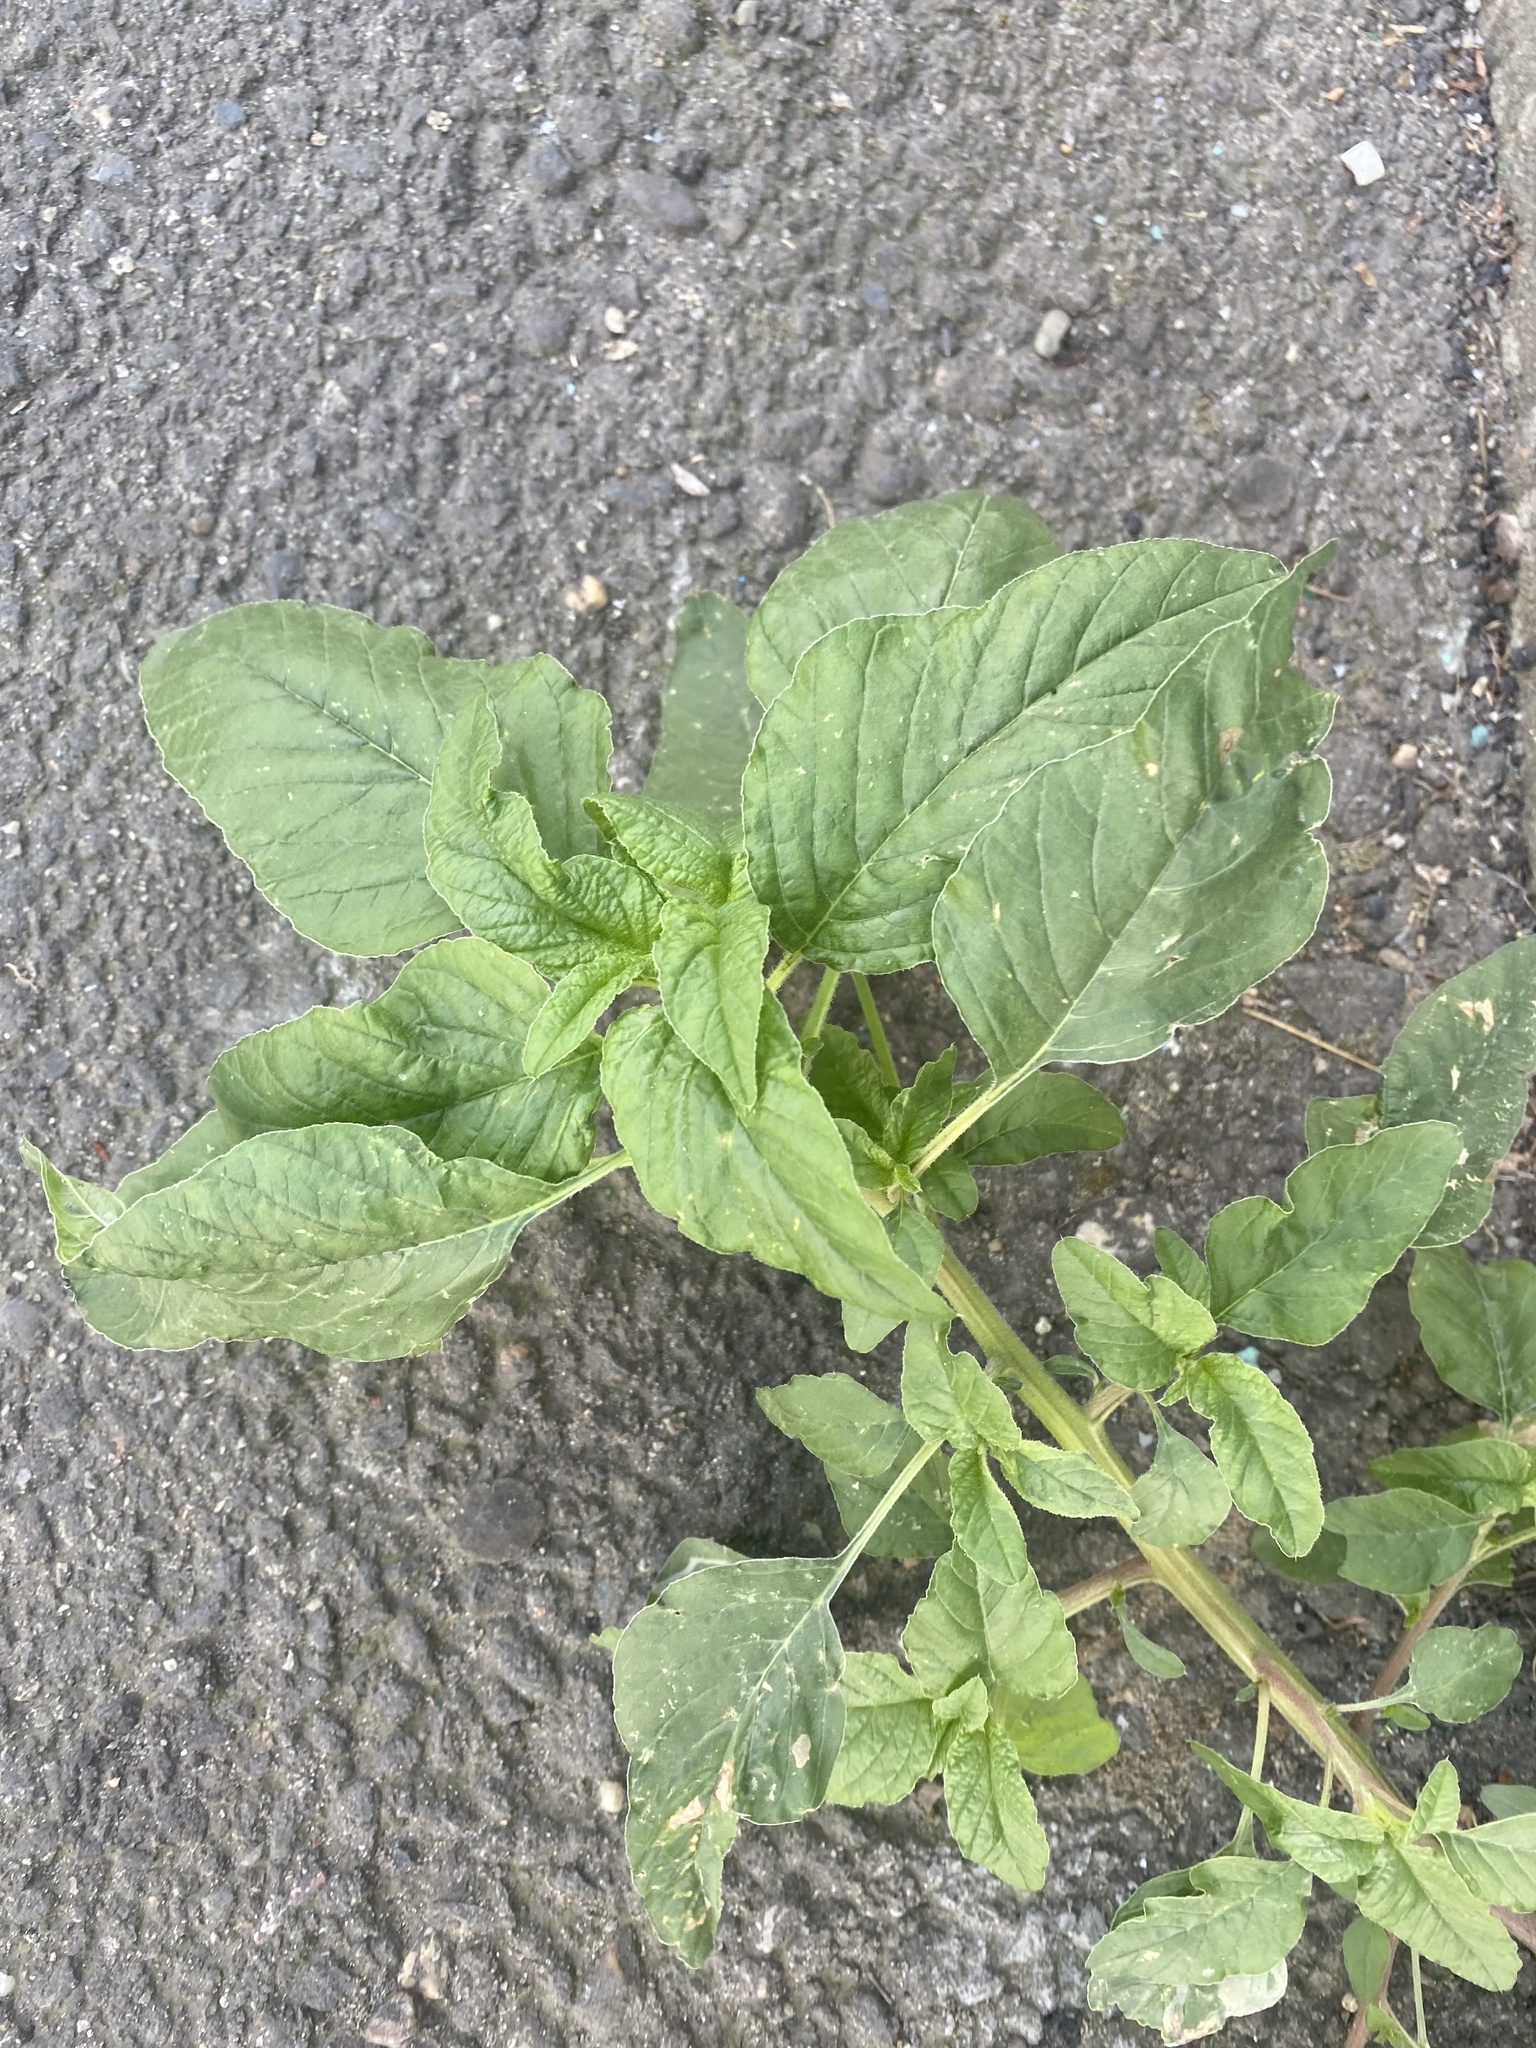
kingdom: Plantae
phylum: Tracheophyta
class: Magnoliopsida
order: Caryophyllales
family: Amaranthaceae
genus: Amaranthus
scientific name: Amaranthus retroflexus
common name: Redroot amaranth
